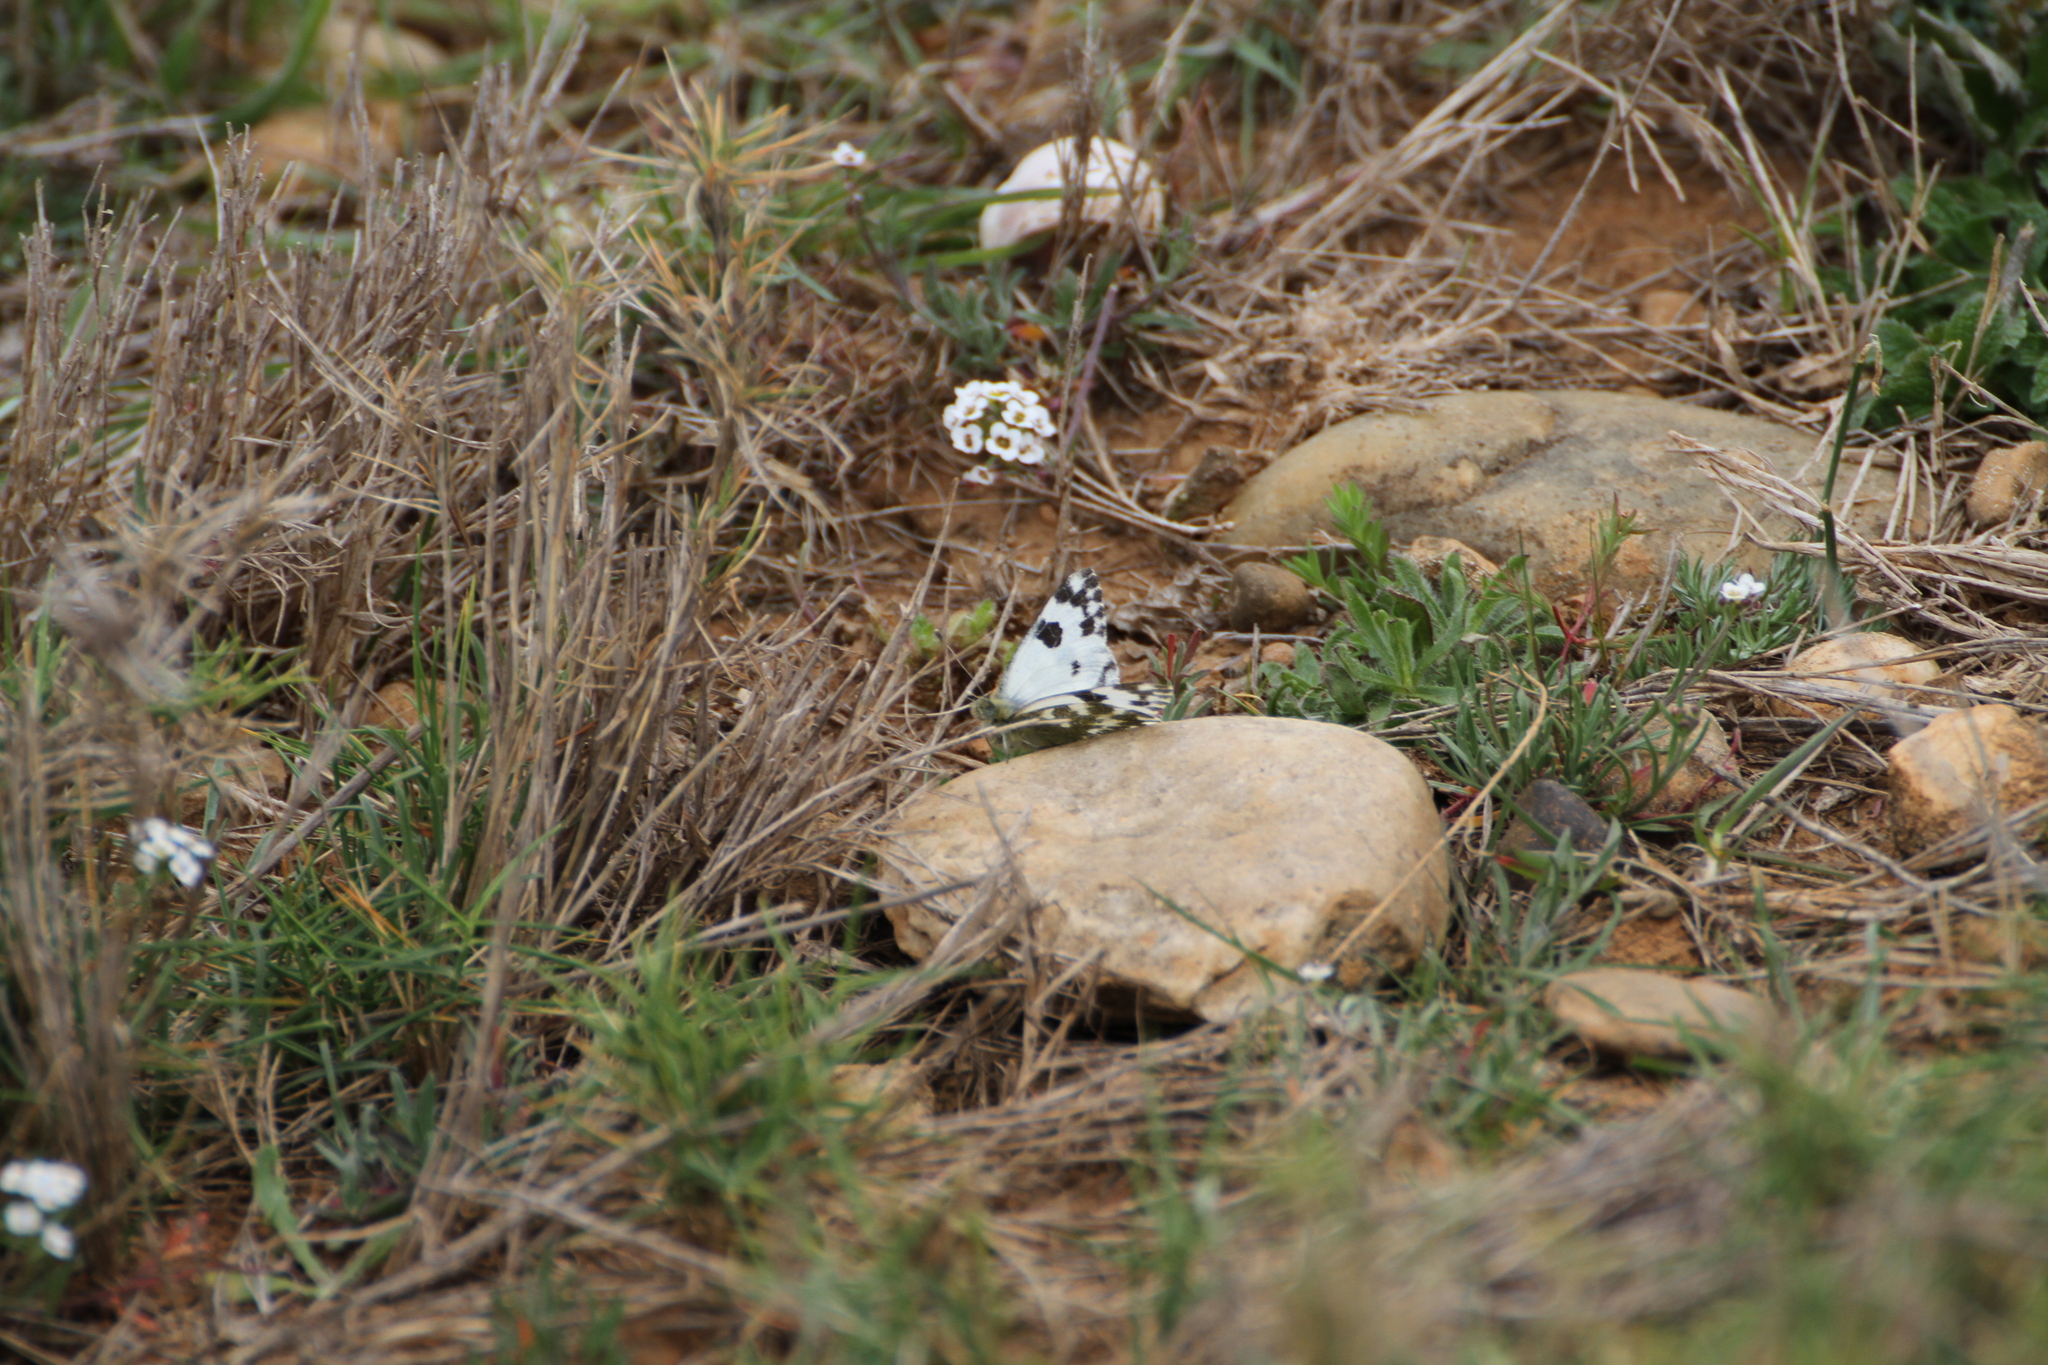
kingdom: Animalia
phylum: Arthropoda
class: Insecta
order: Lepidoptera
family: Pieridae
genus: Pontia
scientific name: Pontia daplidice
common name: Bath white
